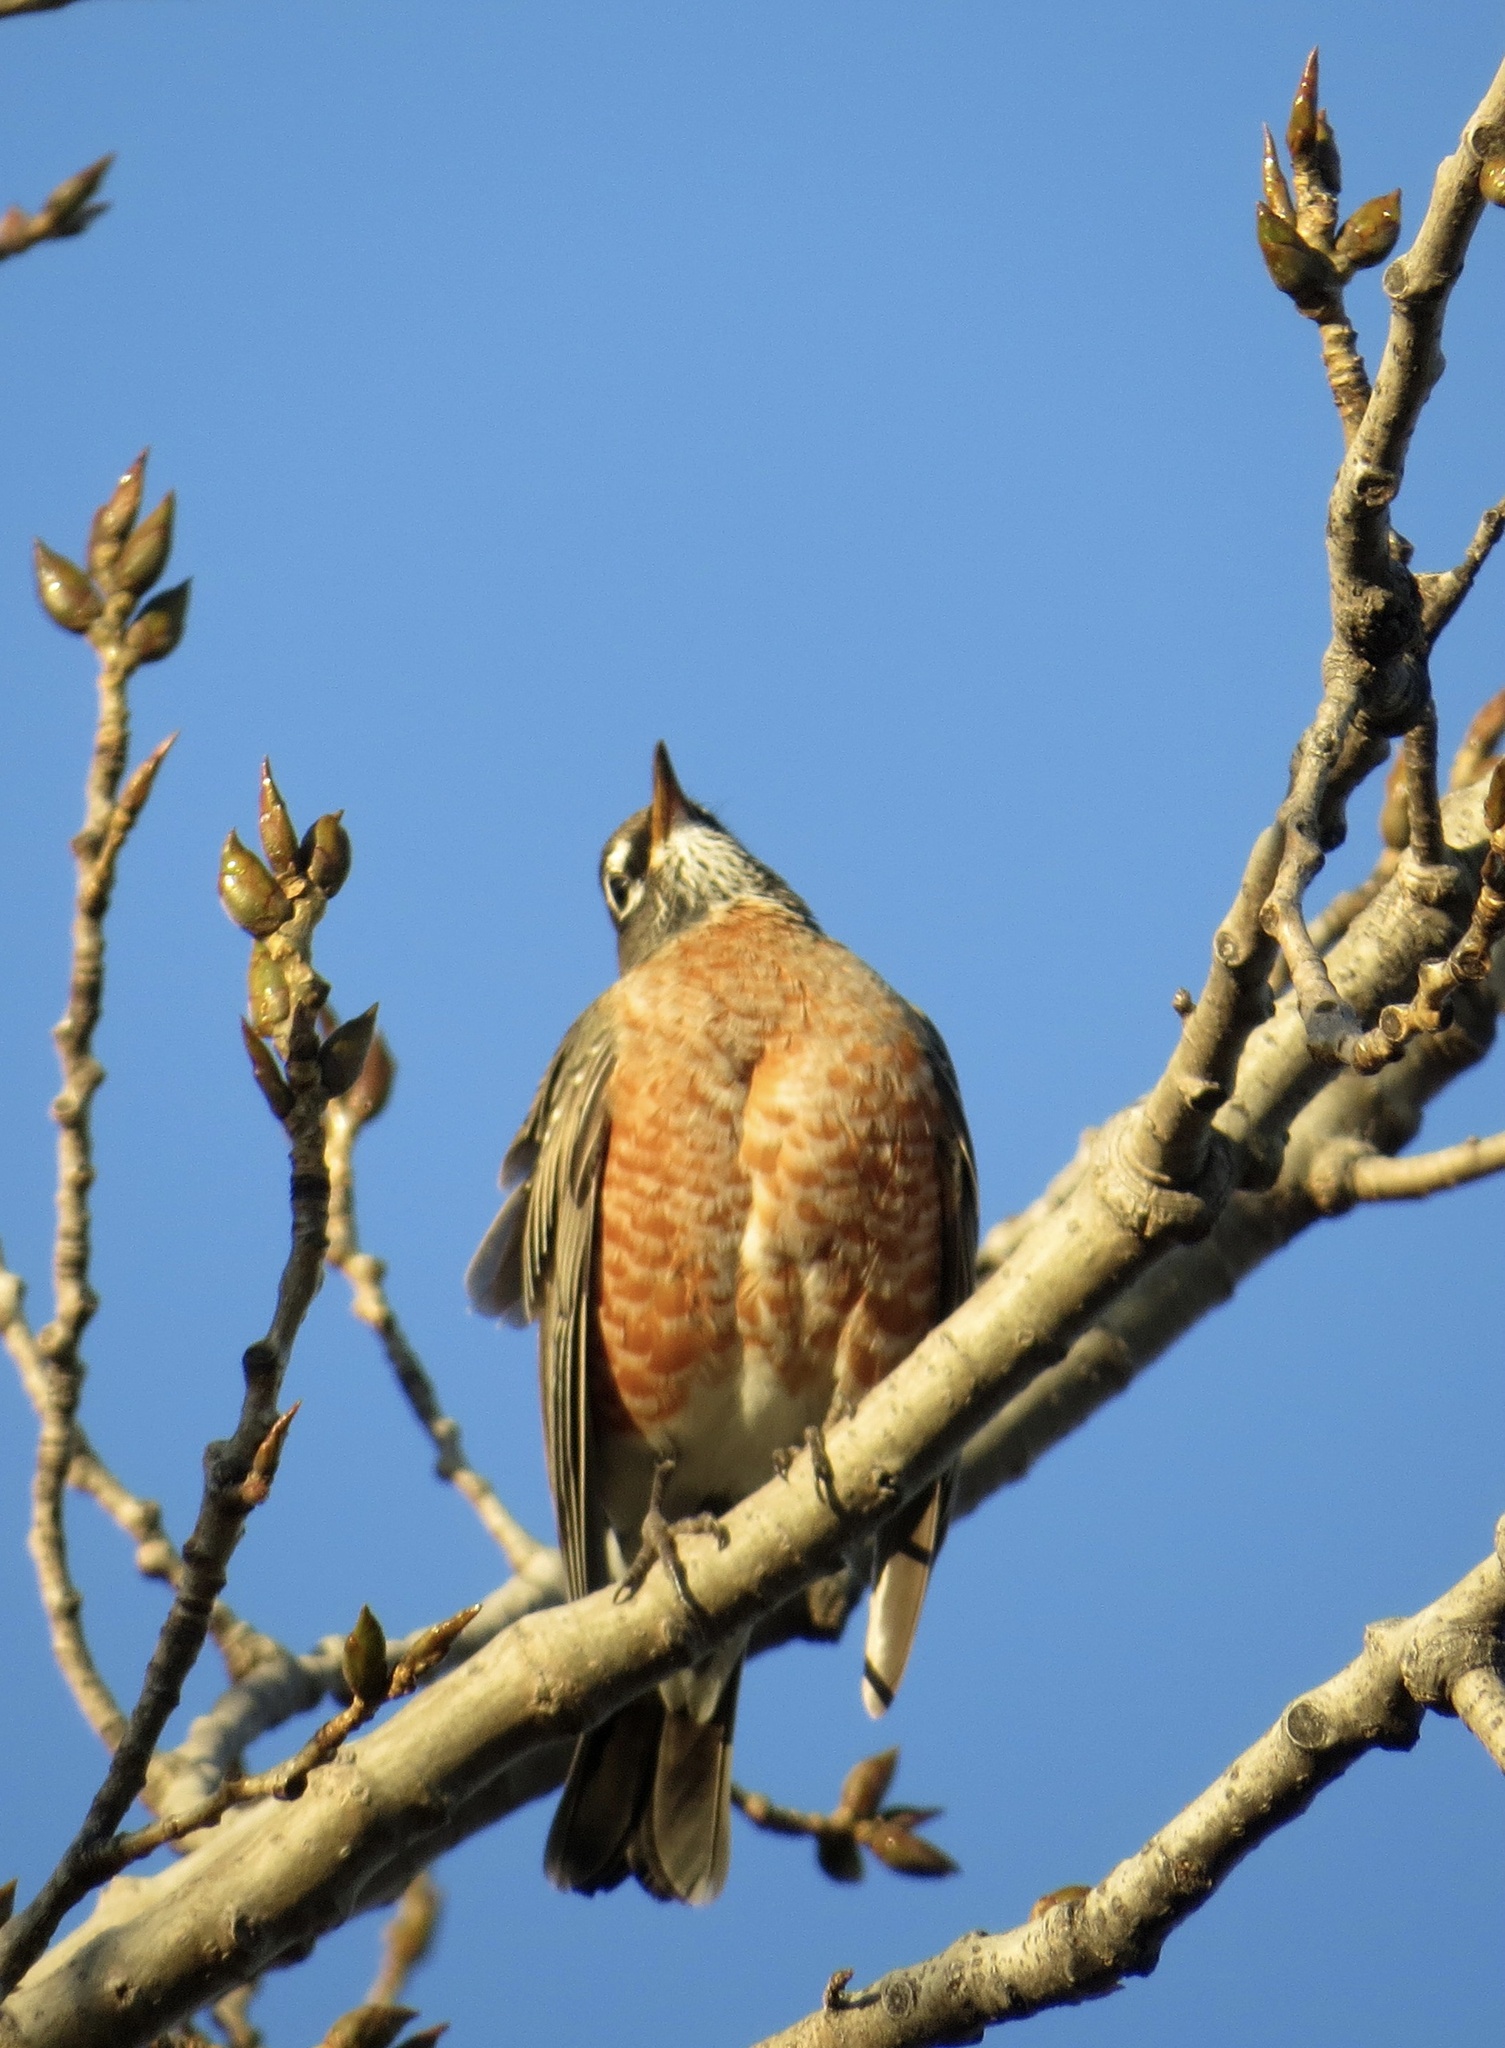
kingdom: Animalia
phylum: Chordata
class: Aves
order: Passeriformes
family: Turdidae
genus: Turdus
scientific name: Turdus migratorius
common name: American robin
